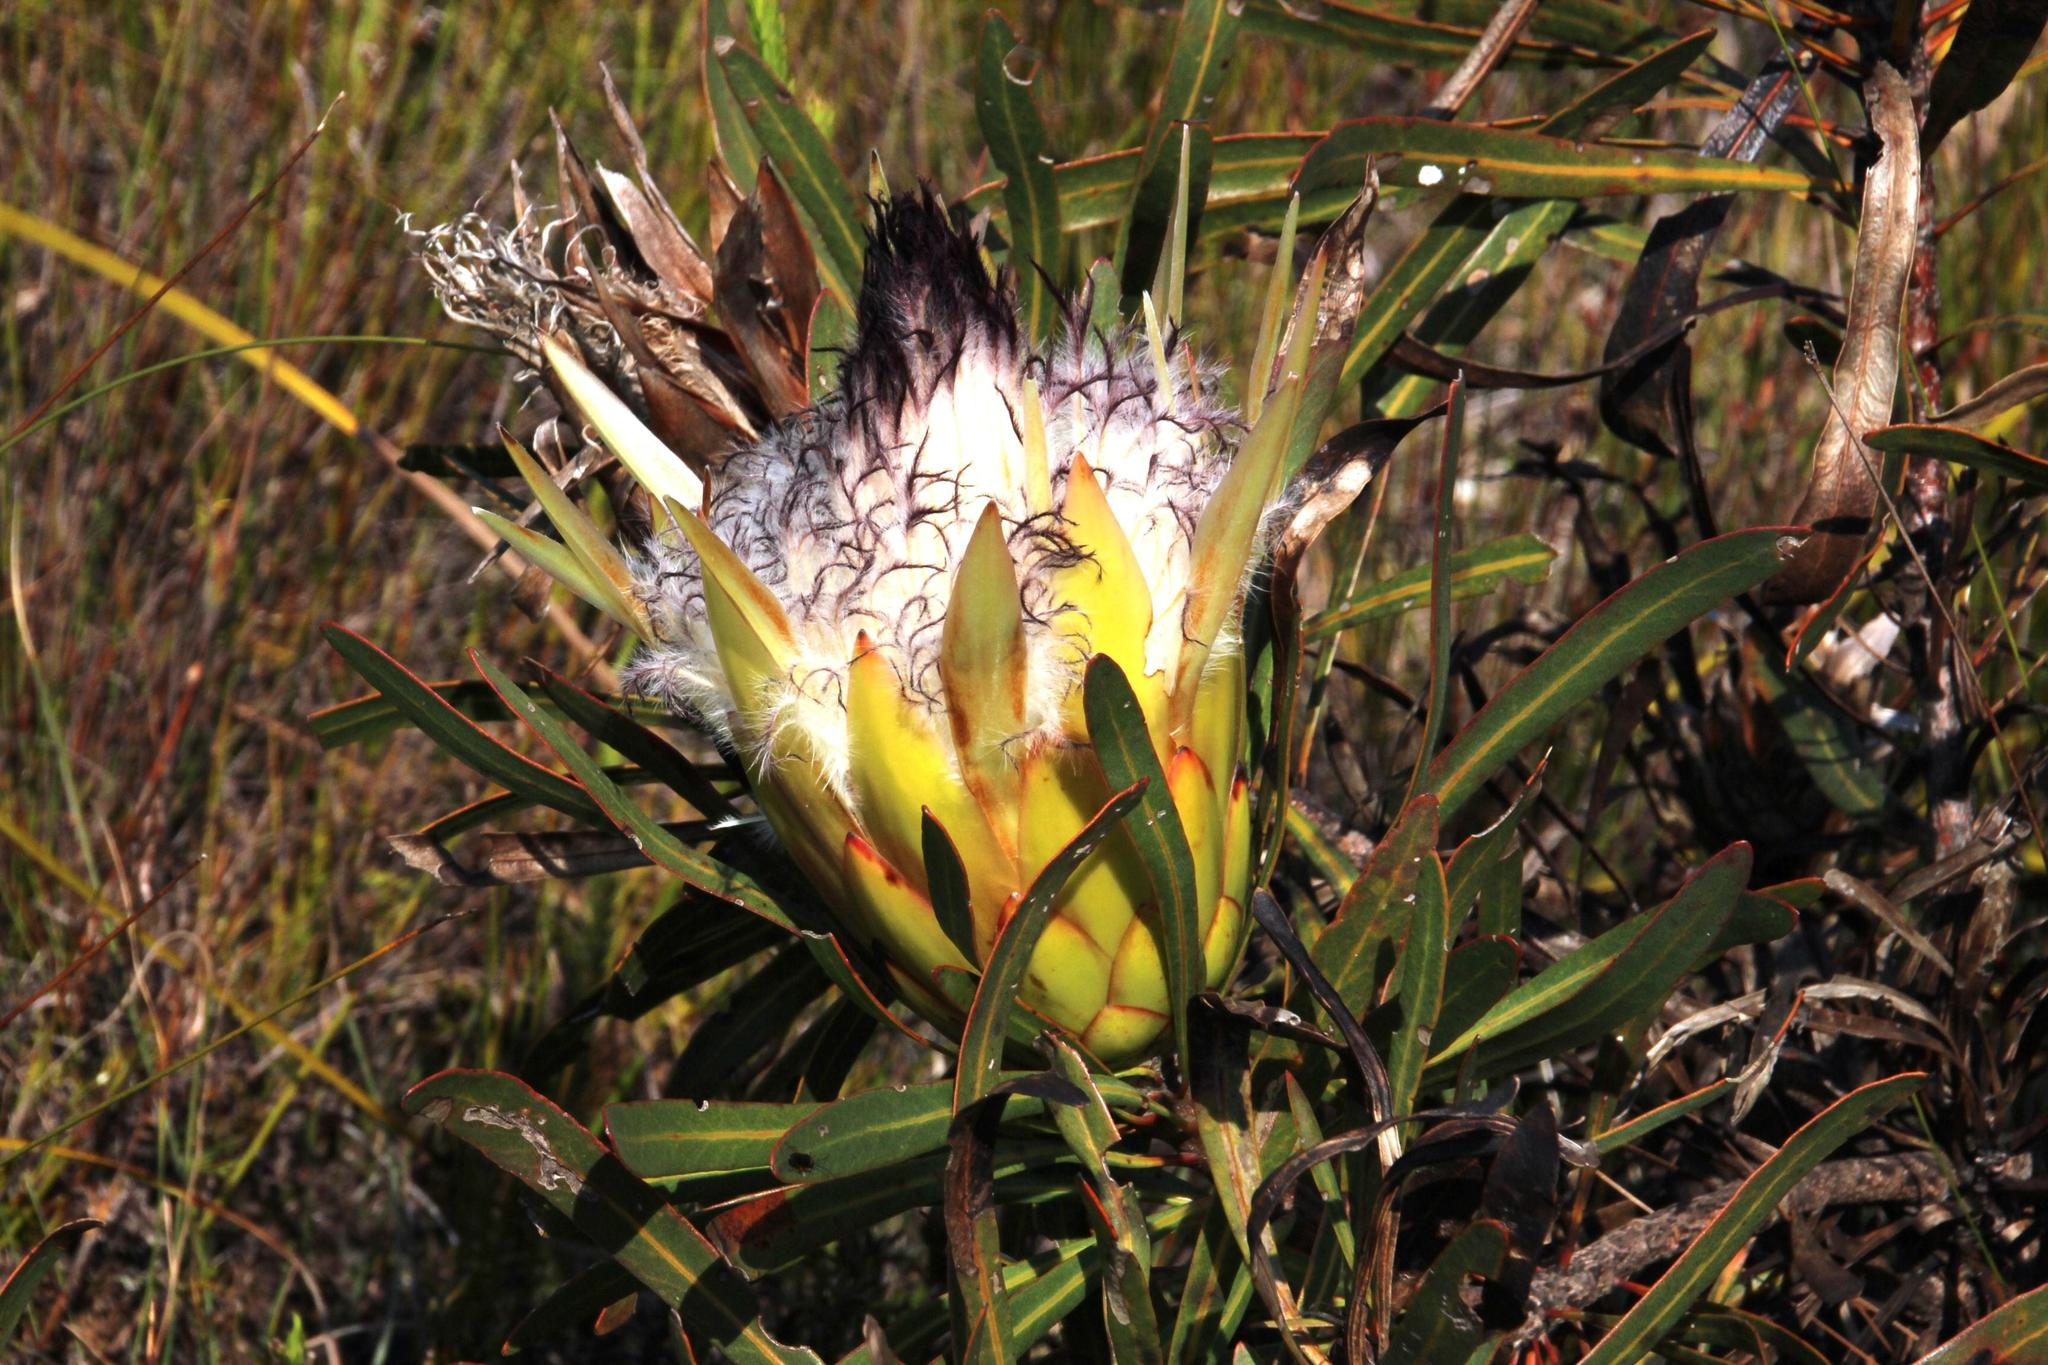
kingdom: Plantae
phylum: Tracheophyta
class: Magnoliopsida
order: Proteales
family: Proteaceae
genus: Protea
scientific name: Protea longifolia
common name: Long-leaf sugarbush
